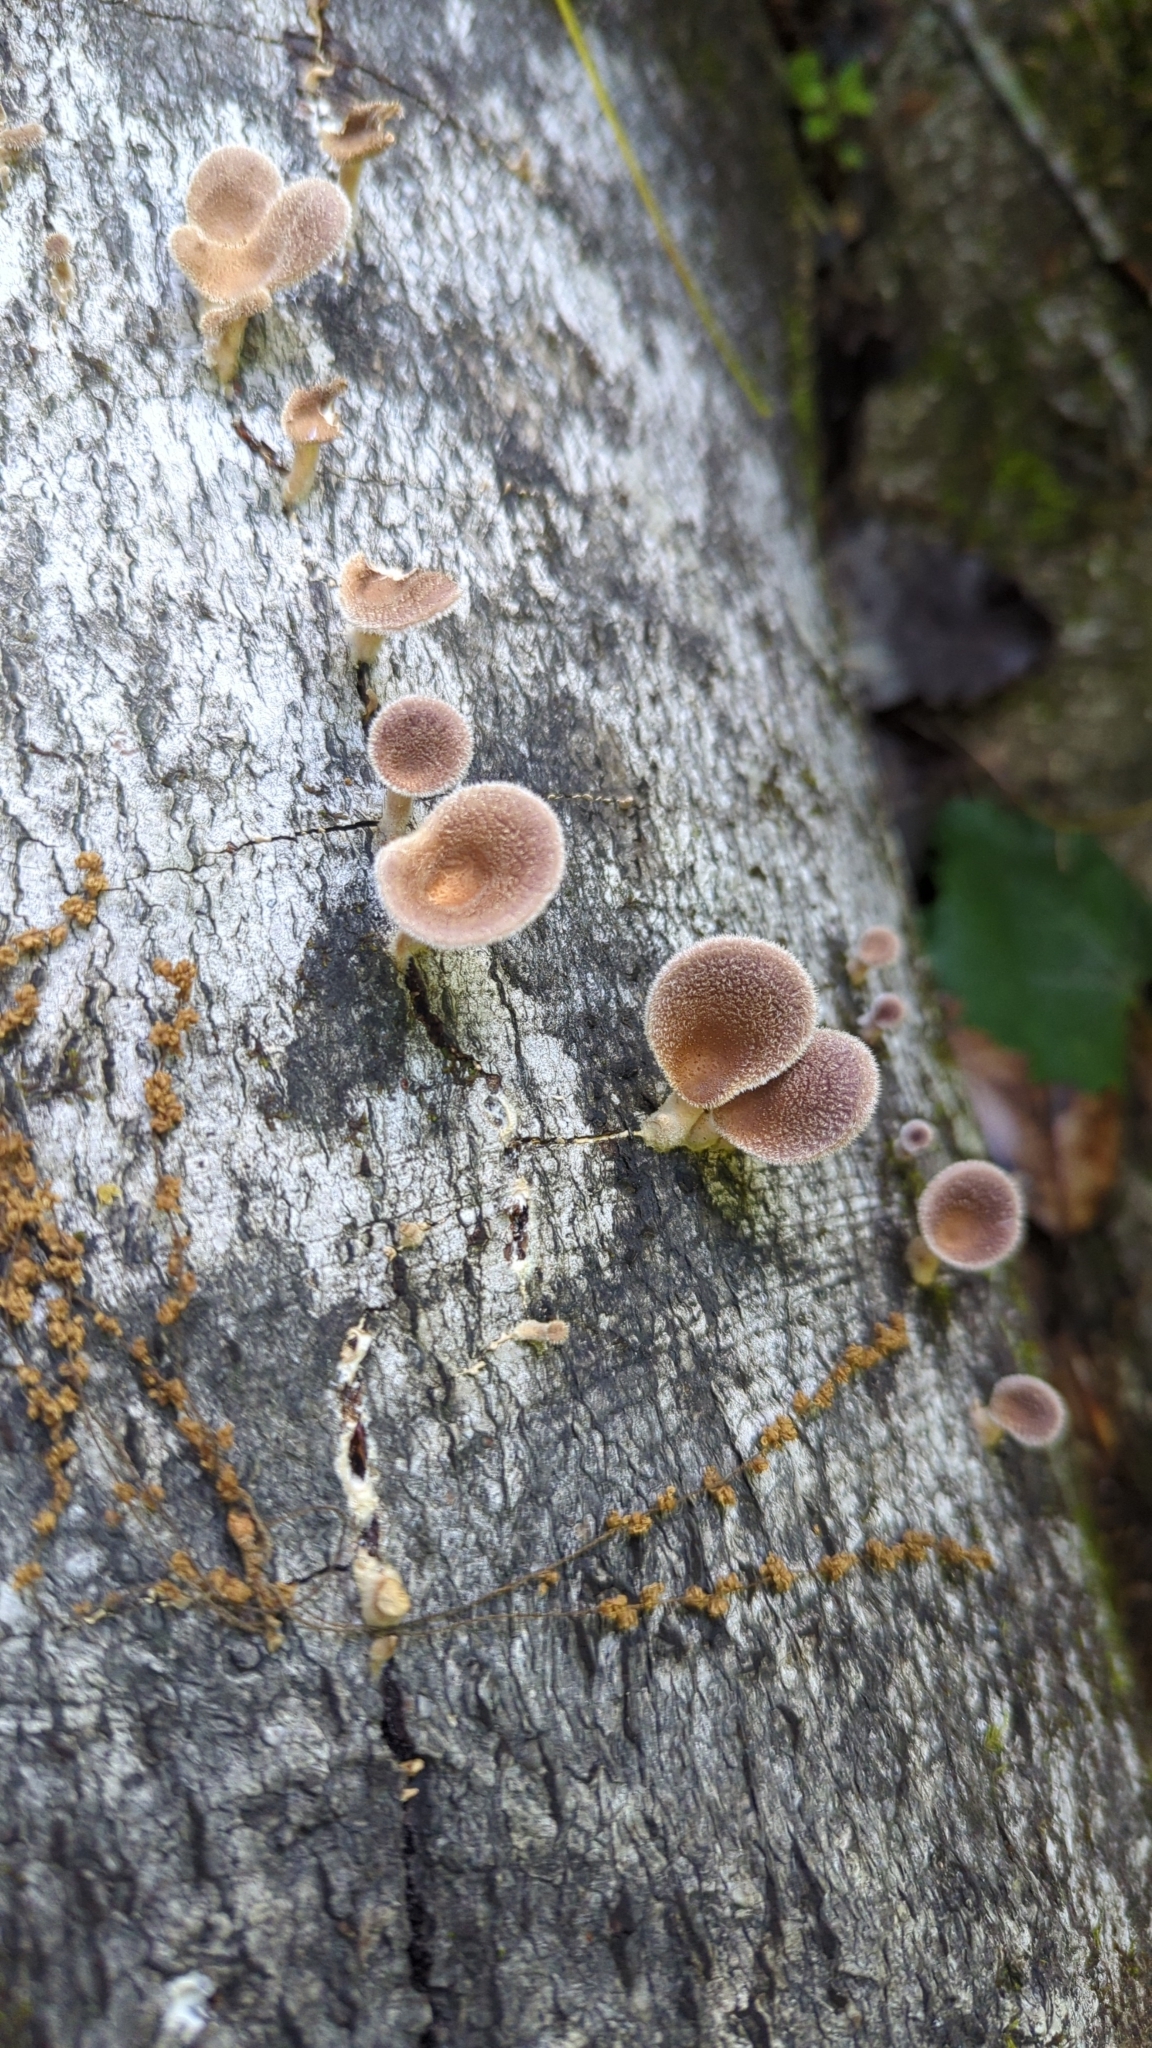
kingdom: Fungi
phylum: Basidiomycota
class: Agaricomycetes
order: Polyporales
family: Panaceae
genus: Panus
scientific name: Panus neostrigosus
